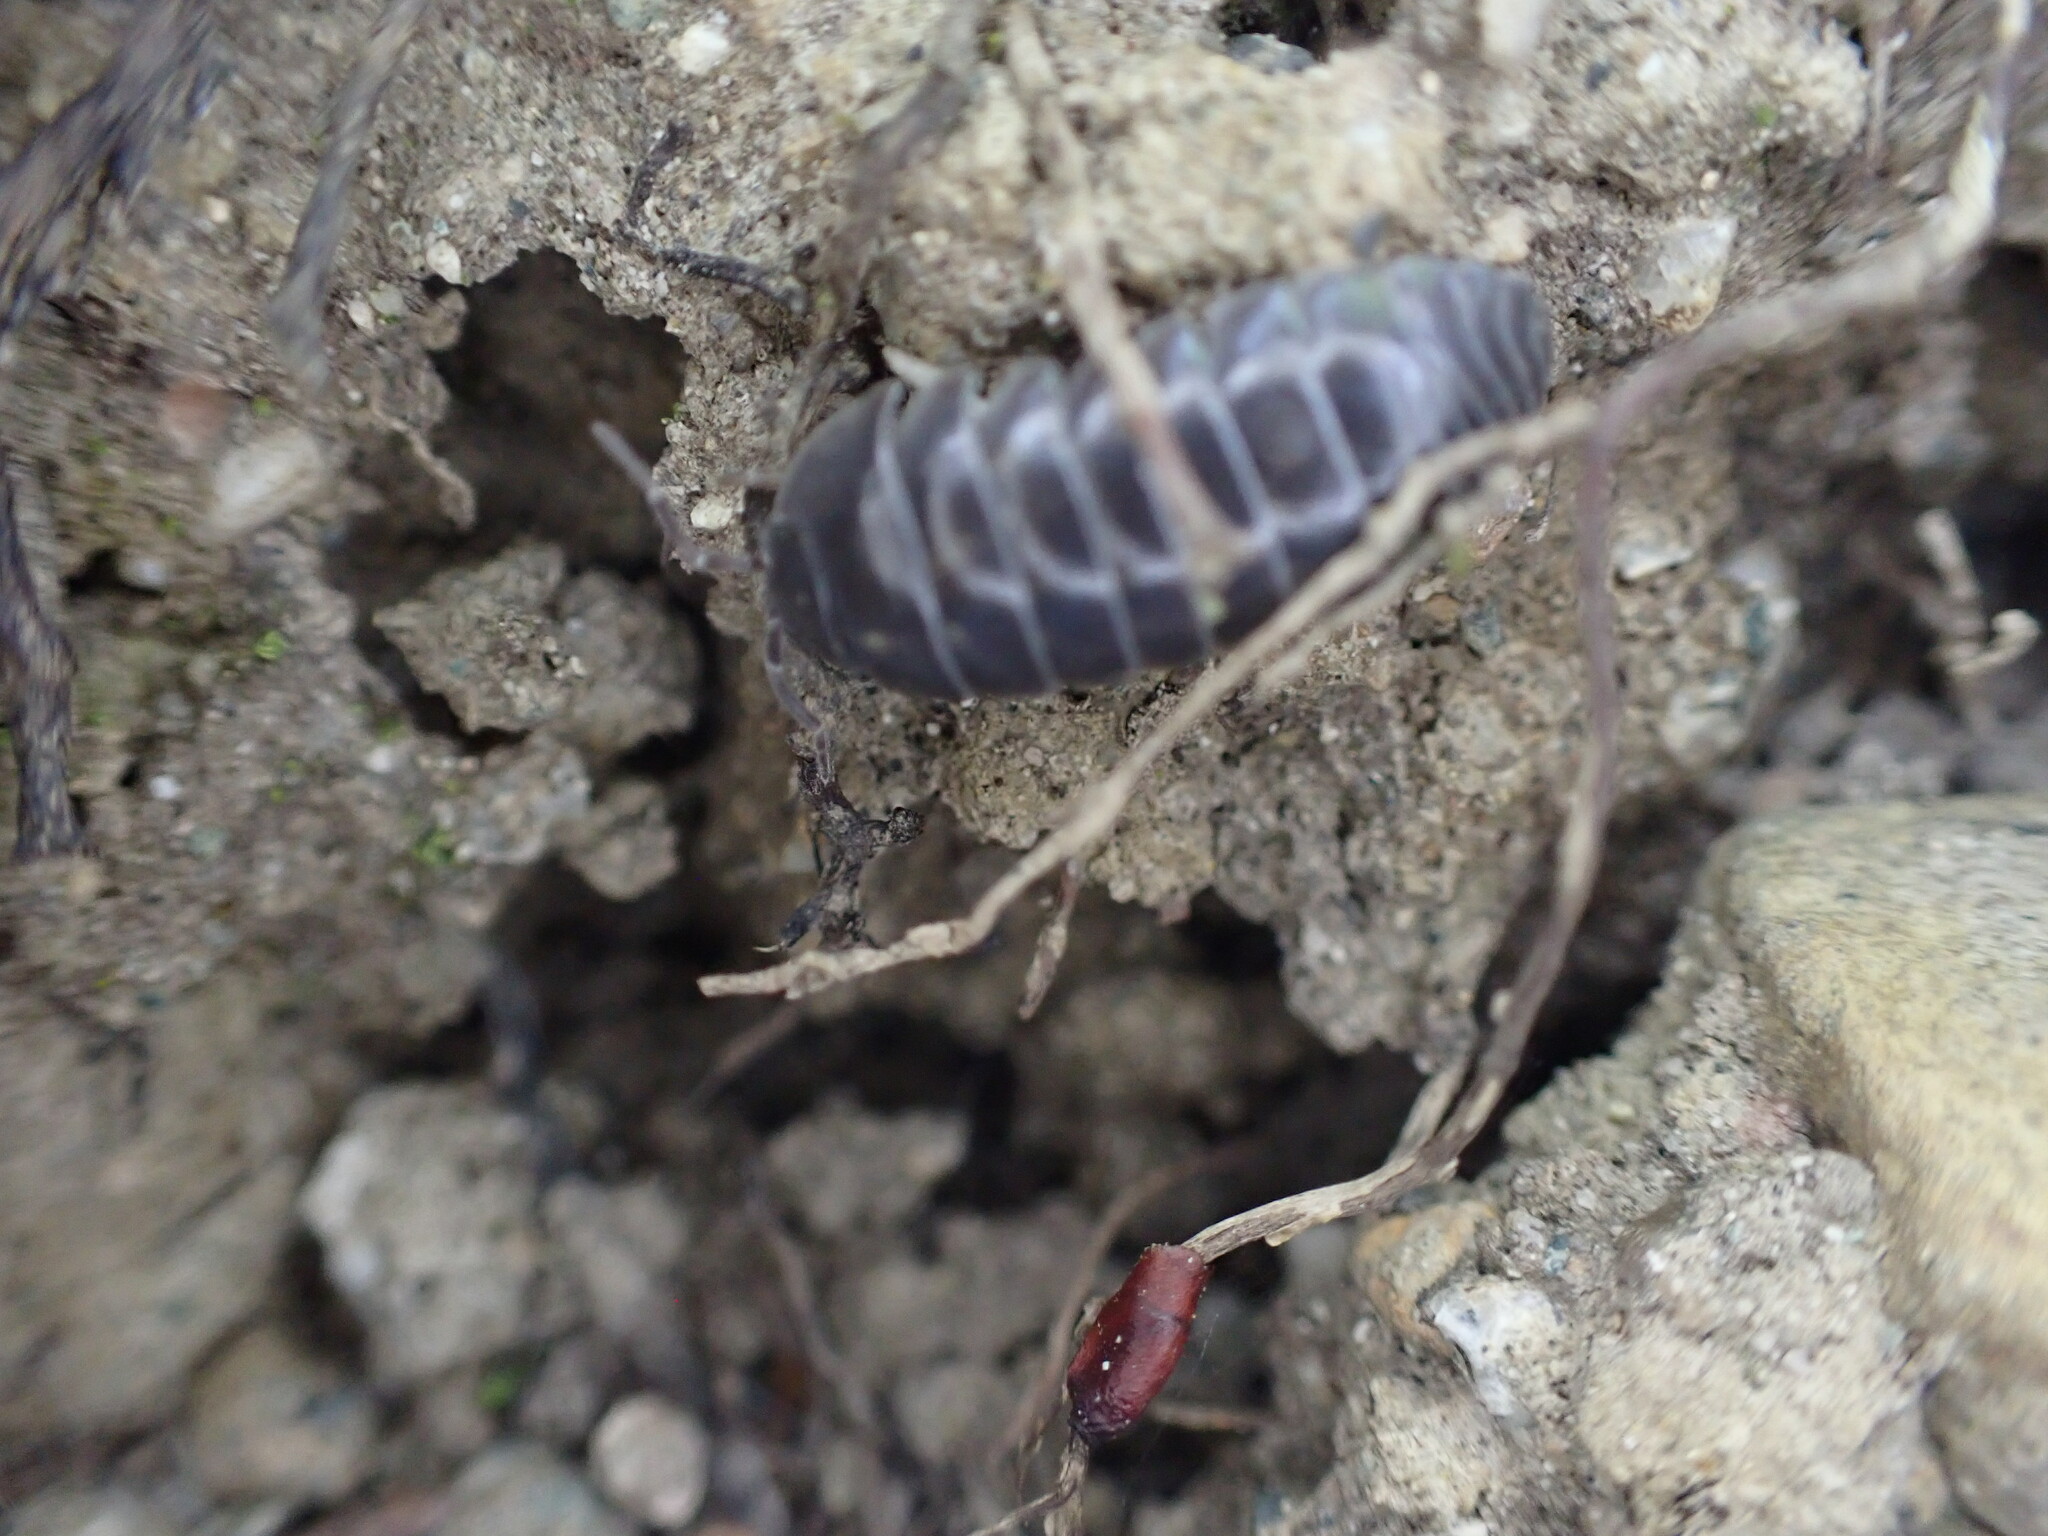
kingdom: Animalia
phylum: Arthropoda
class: Malacostraca
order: Isopoda
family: Armadillidiidae
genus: Armadillidium
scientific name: Armadillidium vulgare
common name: Common pill woodlouse
